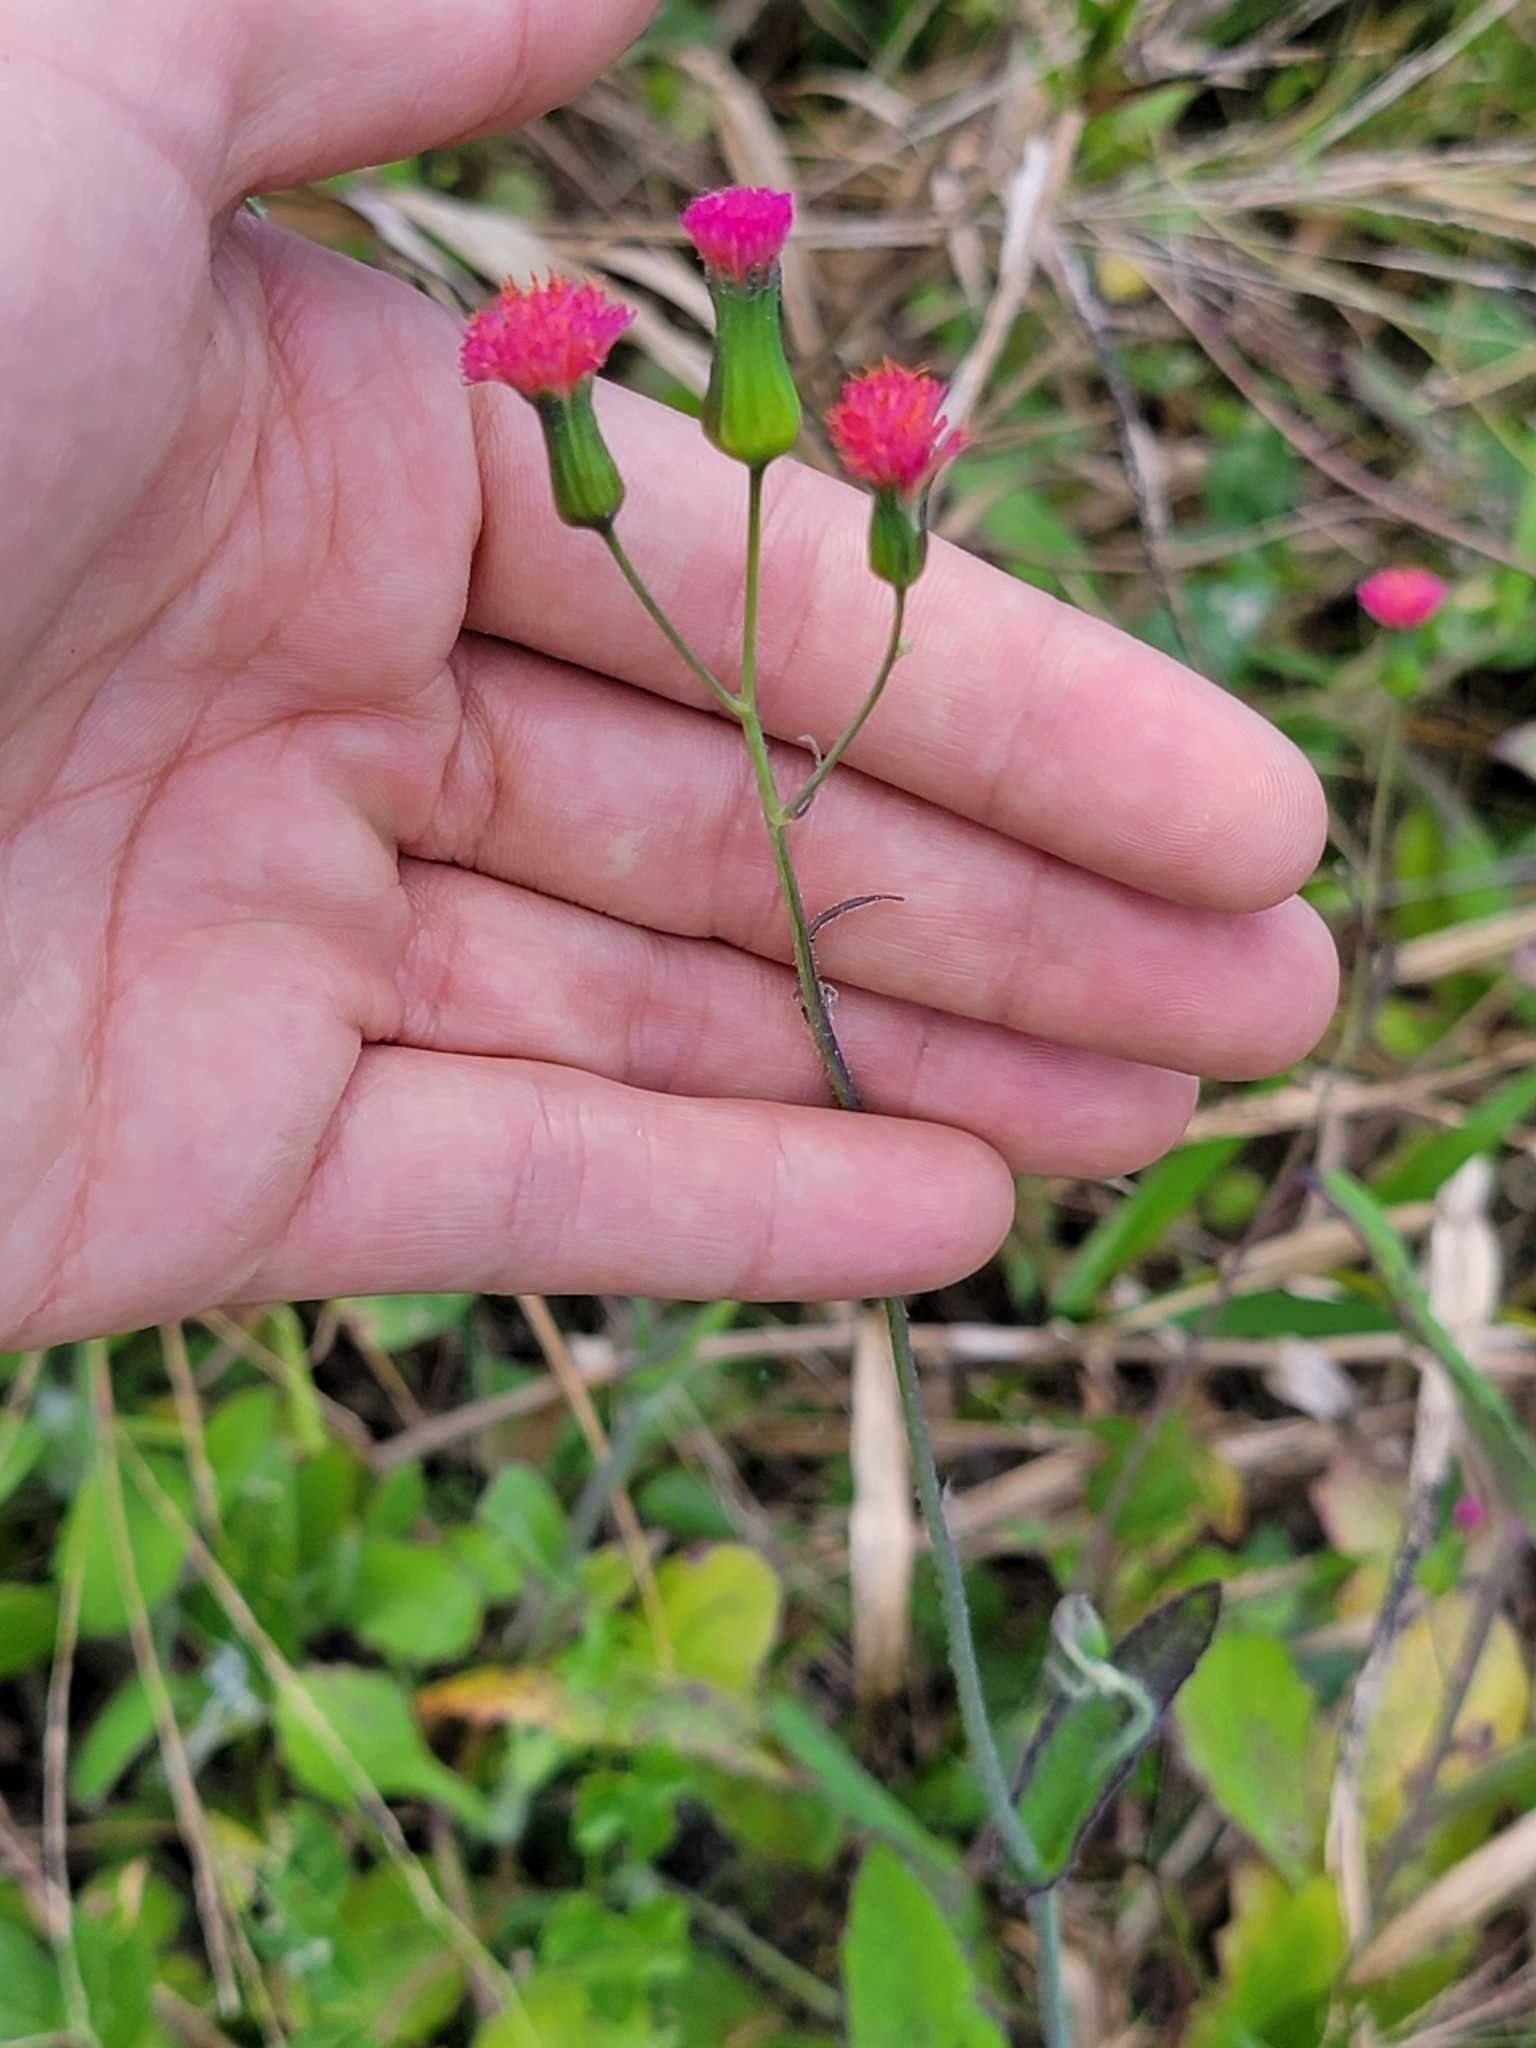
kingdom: Plantae
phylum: Tracheophyta
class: Magnoliopsida
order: Asterales
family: Asteraceae
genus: Emilia
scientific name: Emilia fosbergii
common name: Florida tasselflower
